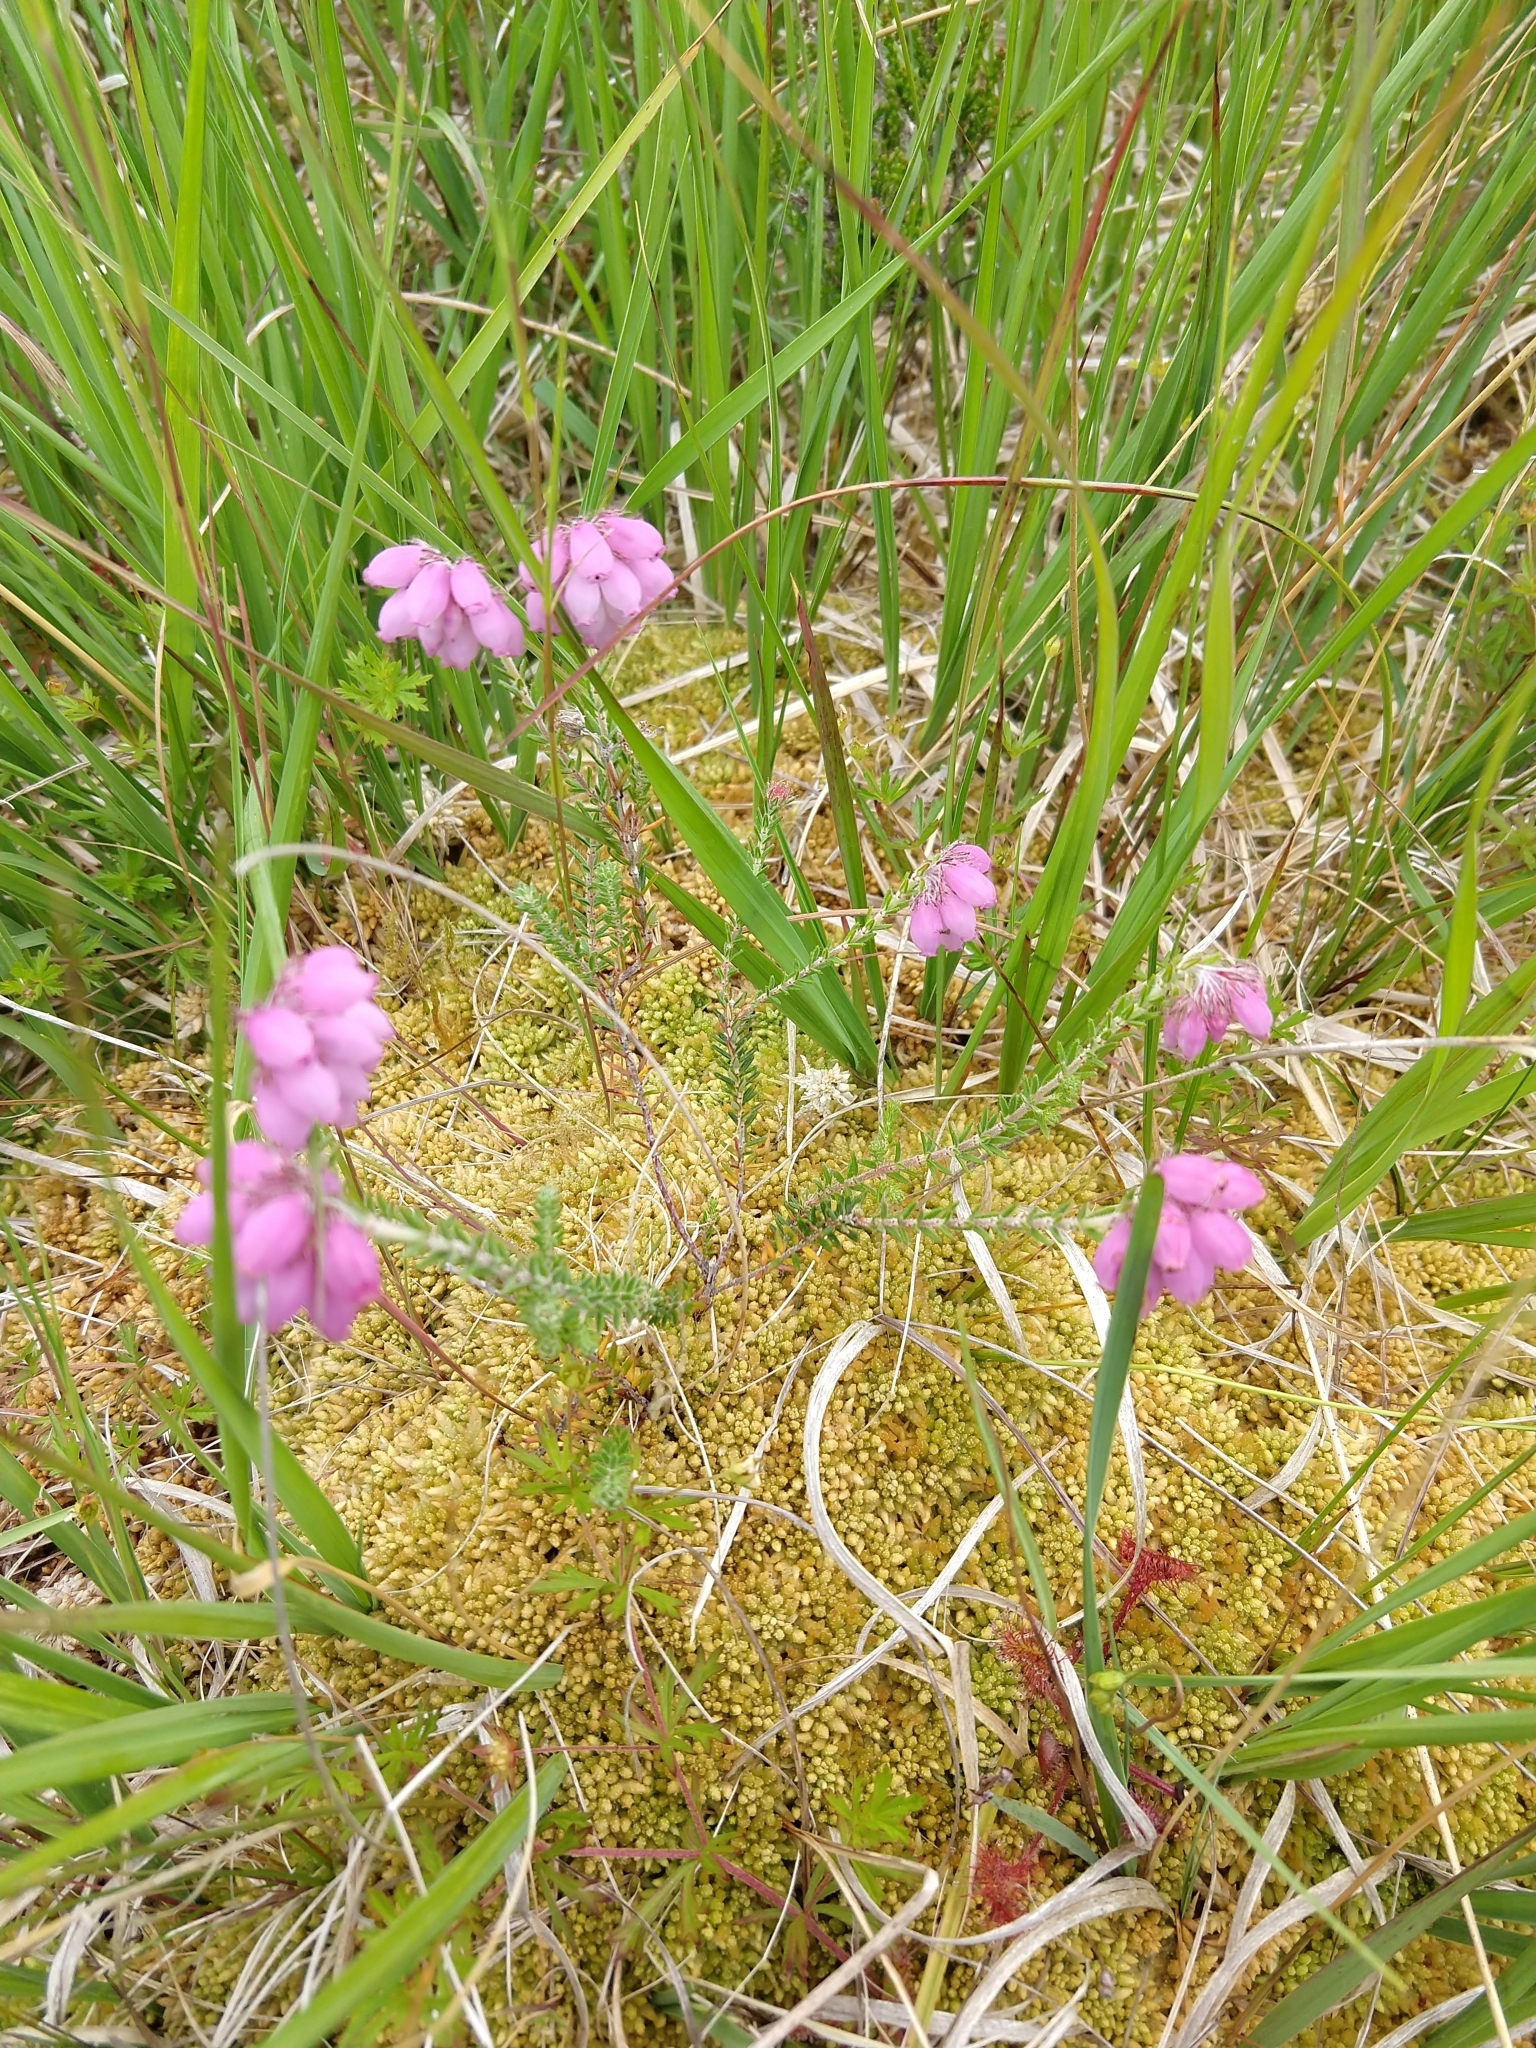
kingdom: Plantae
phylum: Tracheophyta
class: Magnoliopsida
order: Ericales
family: Ericaceae
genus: Erica
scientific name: Erica tetralix
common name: Cross-leaved heath
